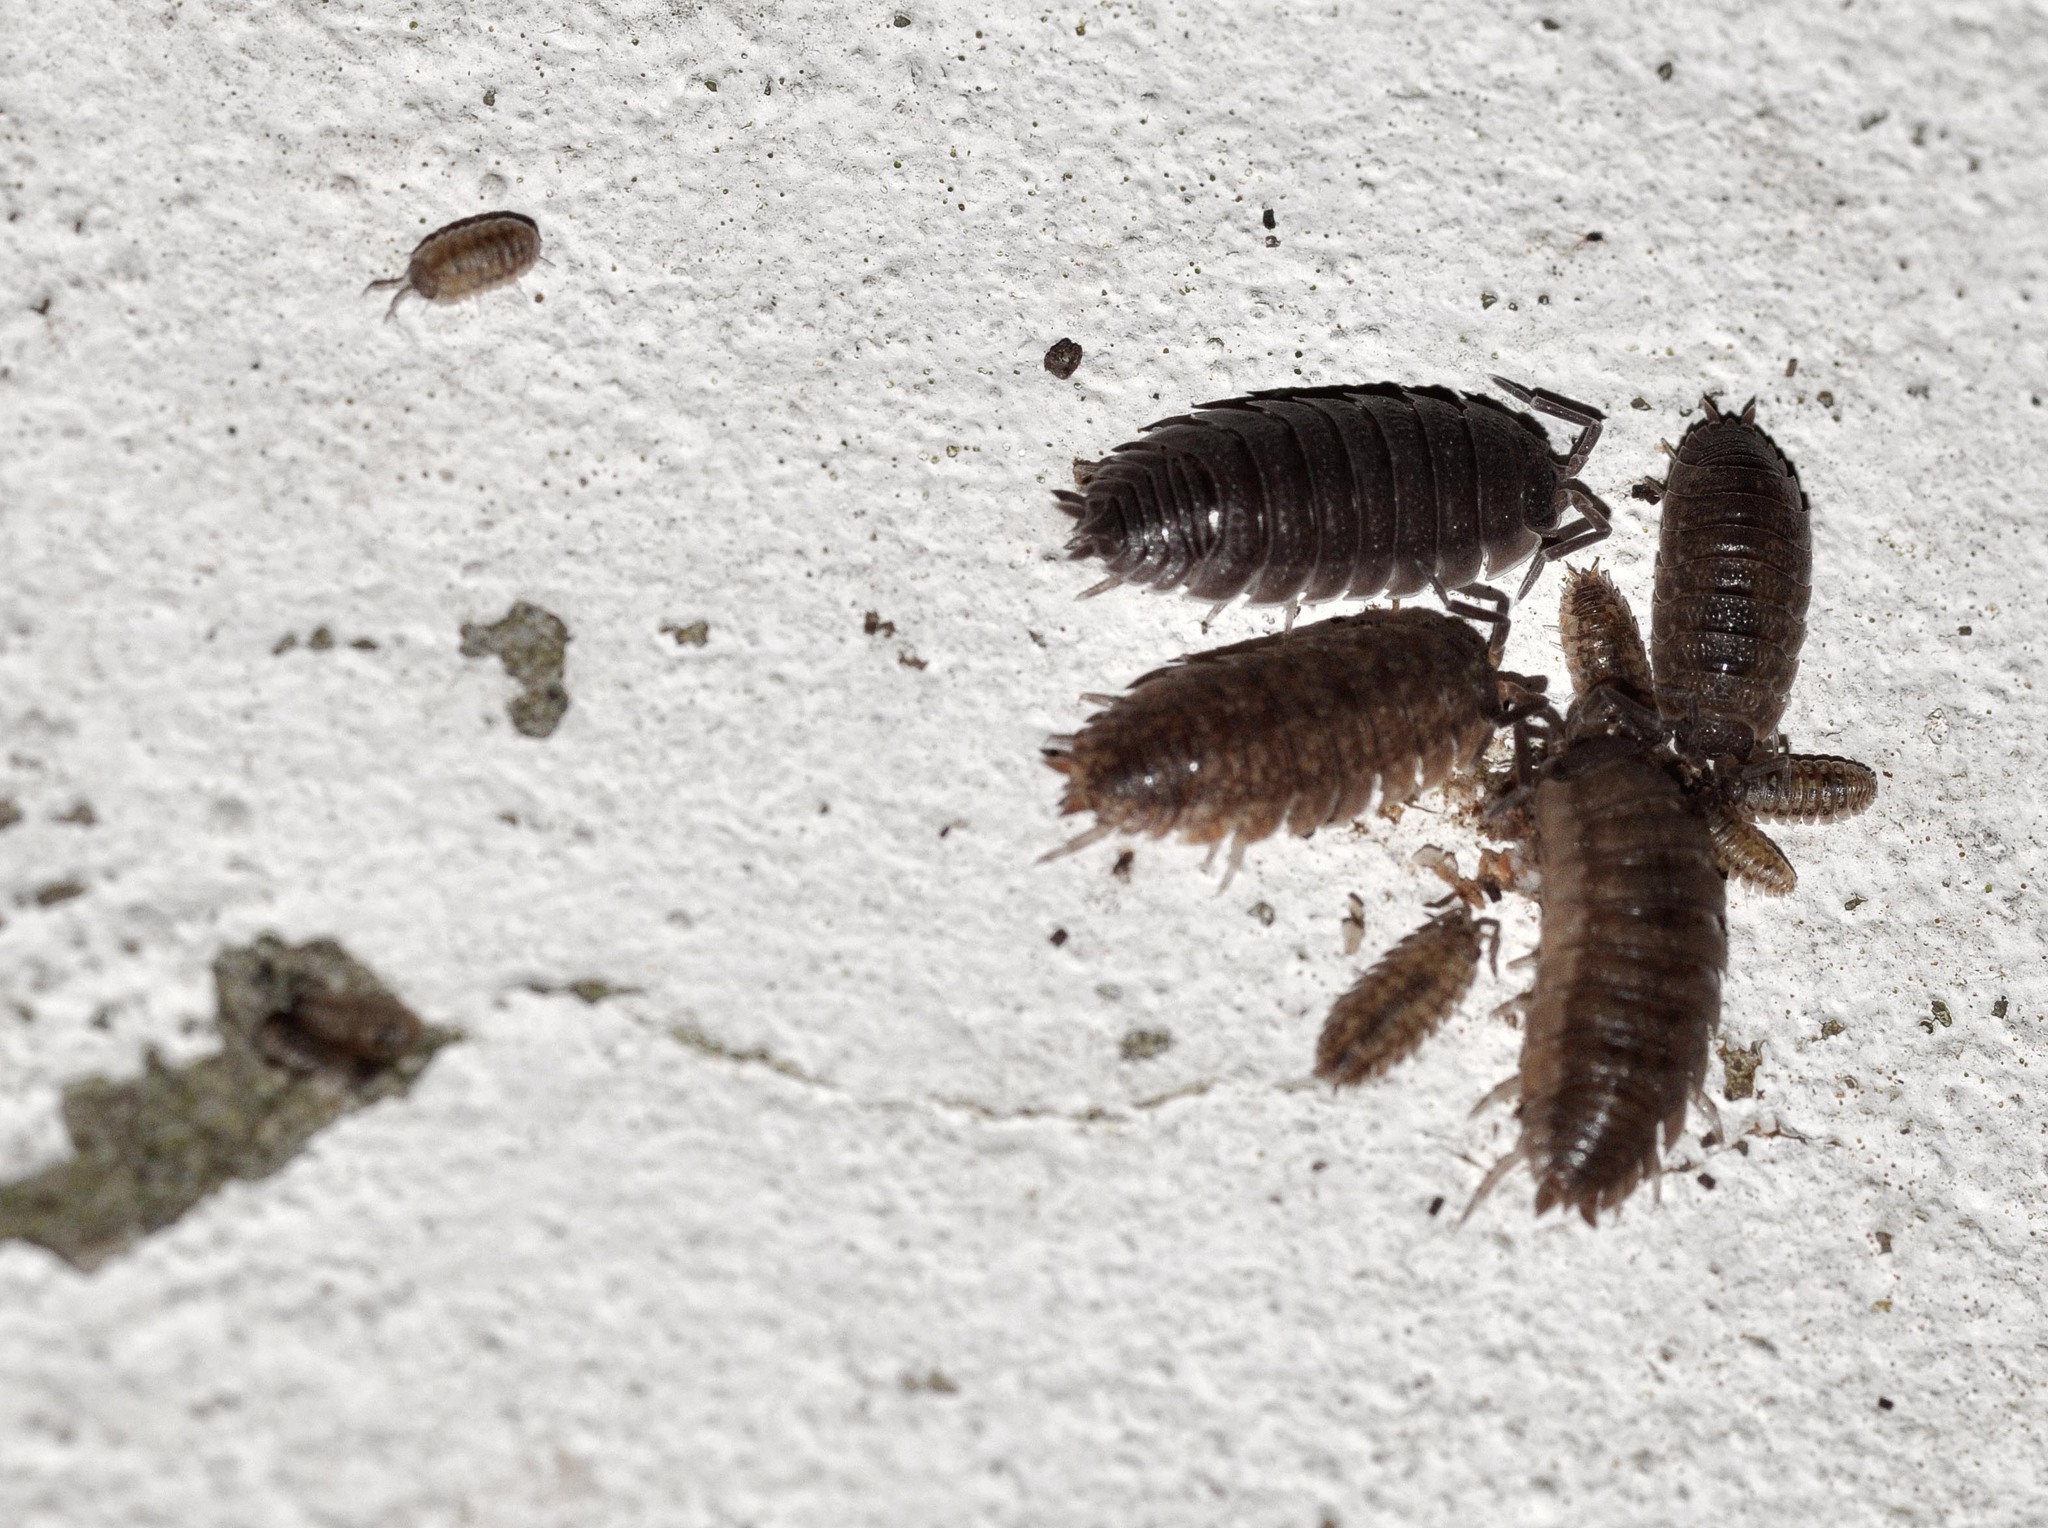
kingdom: Animalia
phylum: Arthropoda
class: Malacostraca
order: Isopoda
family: Porcellionidae
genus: Porcellio
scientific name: Porcellio scaber
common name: Common rough woodlouse
